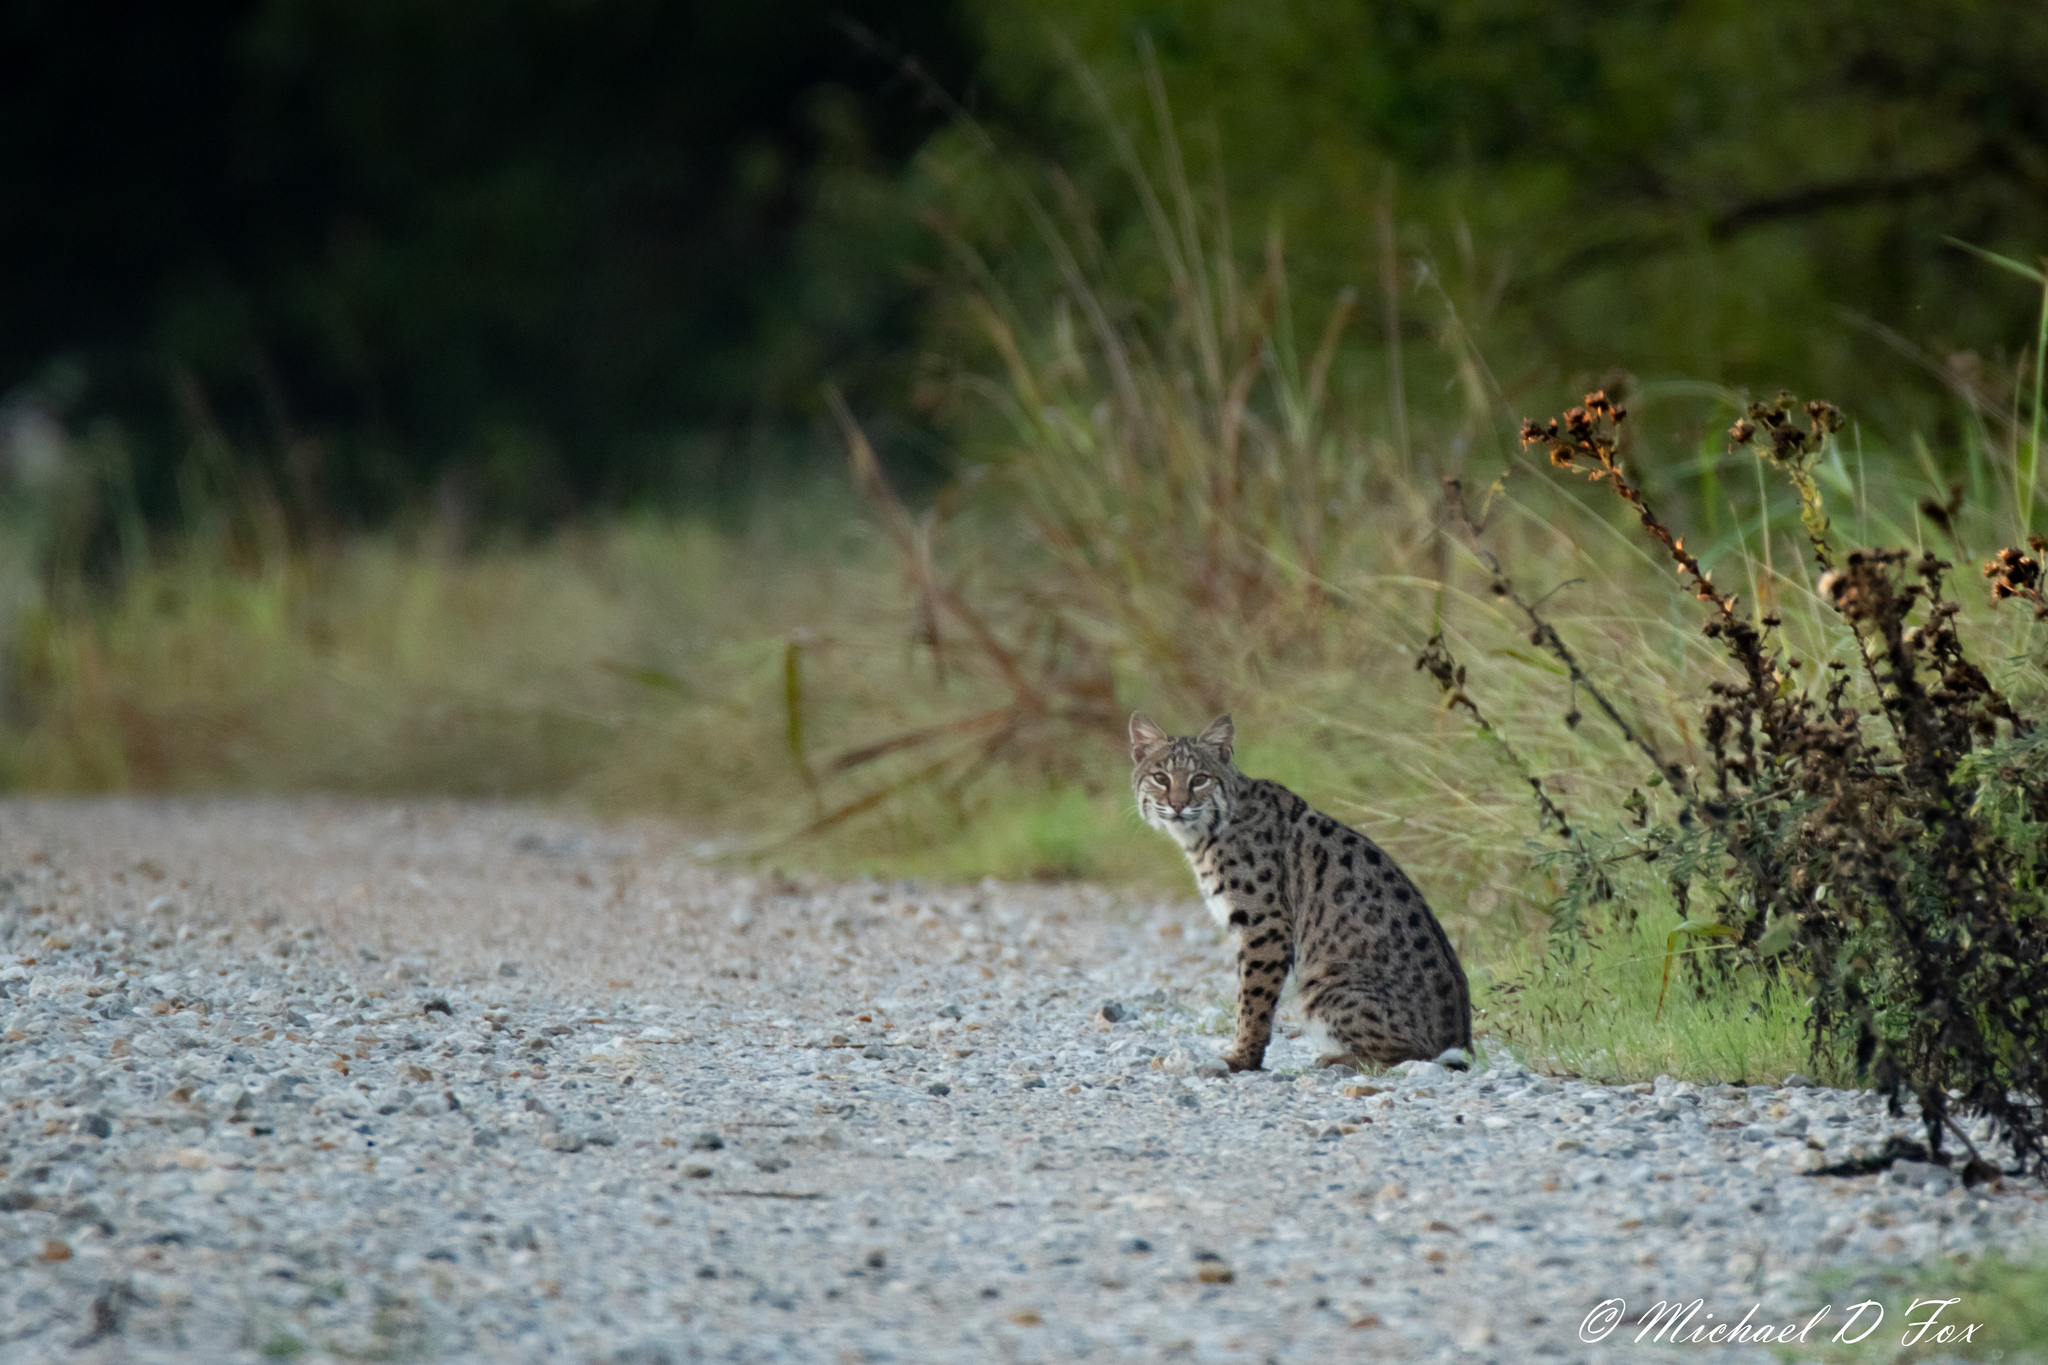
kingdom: Animalia
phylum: Chordata
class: Mammalia
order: Carnivora
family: Felidae
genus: Lynx
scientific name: Lynx rufus
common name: Bobcat
